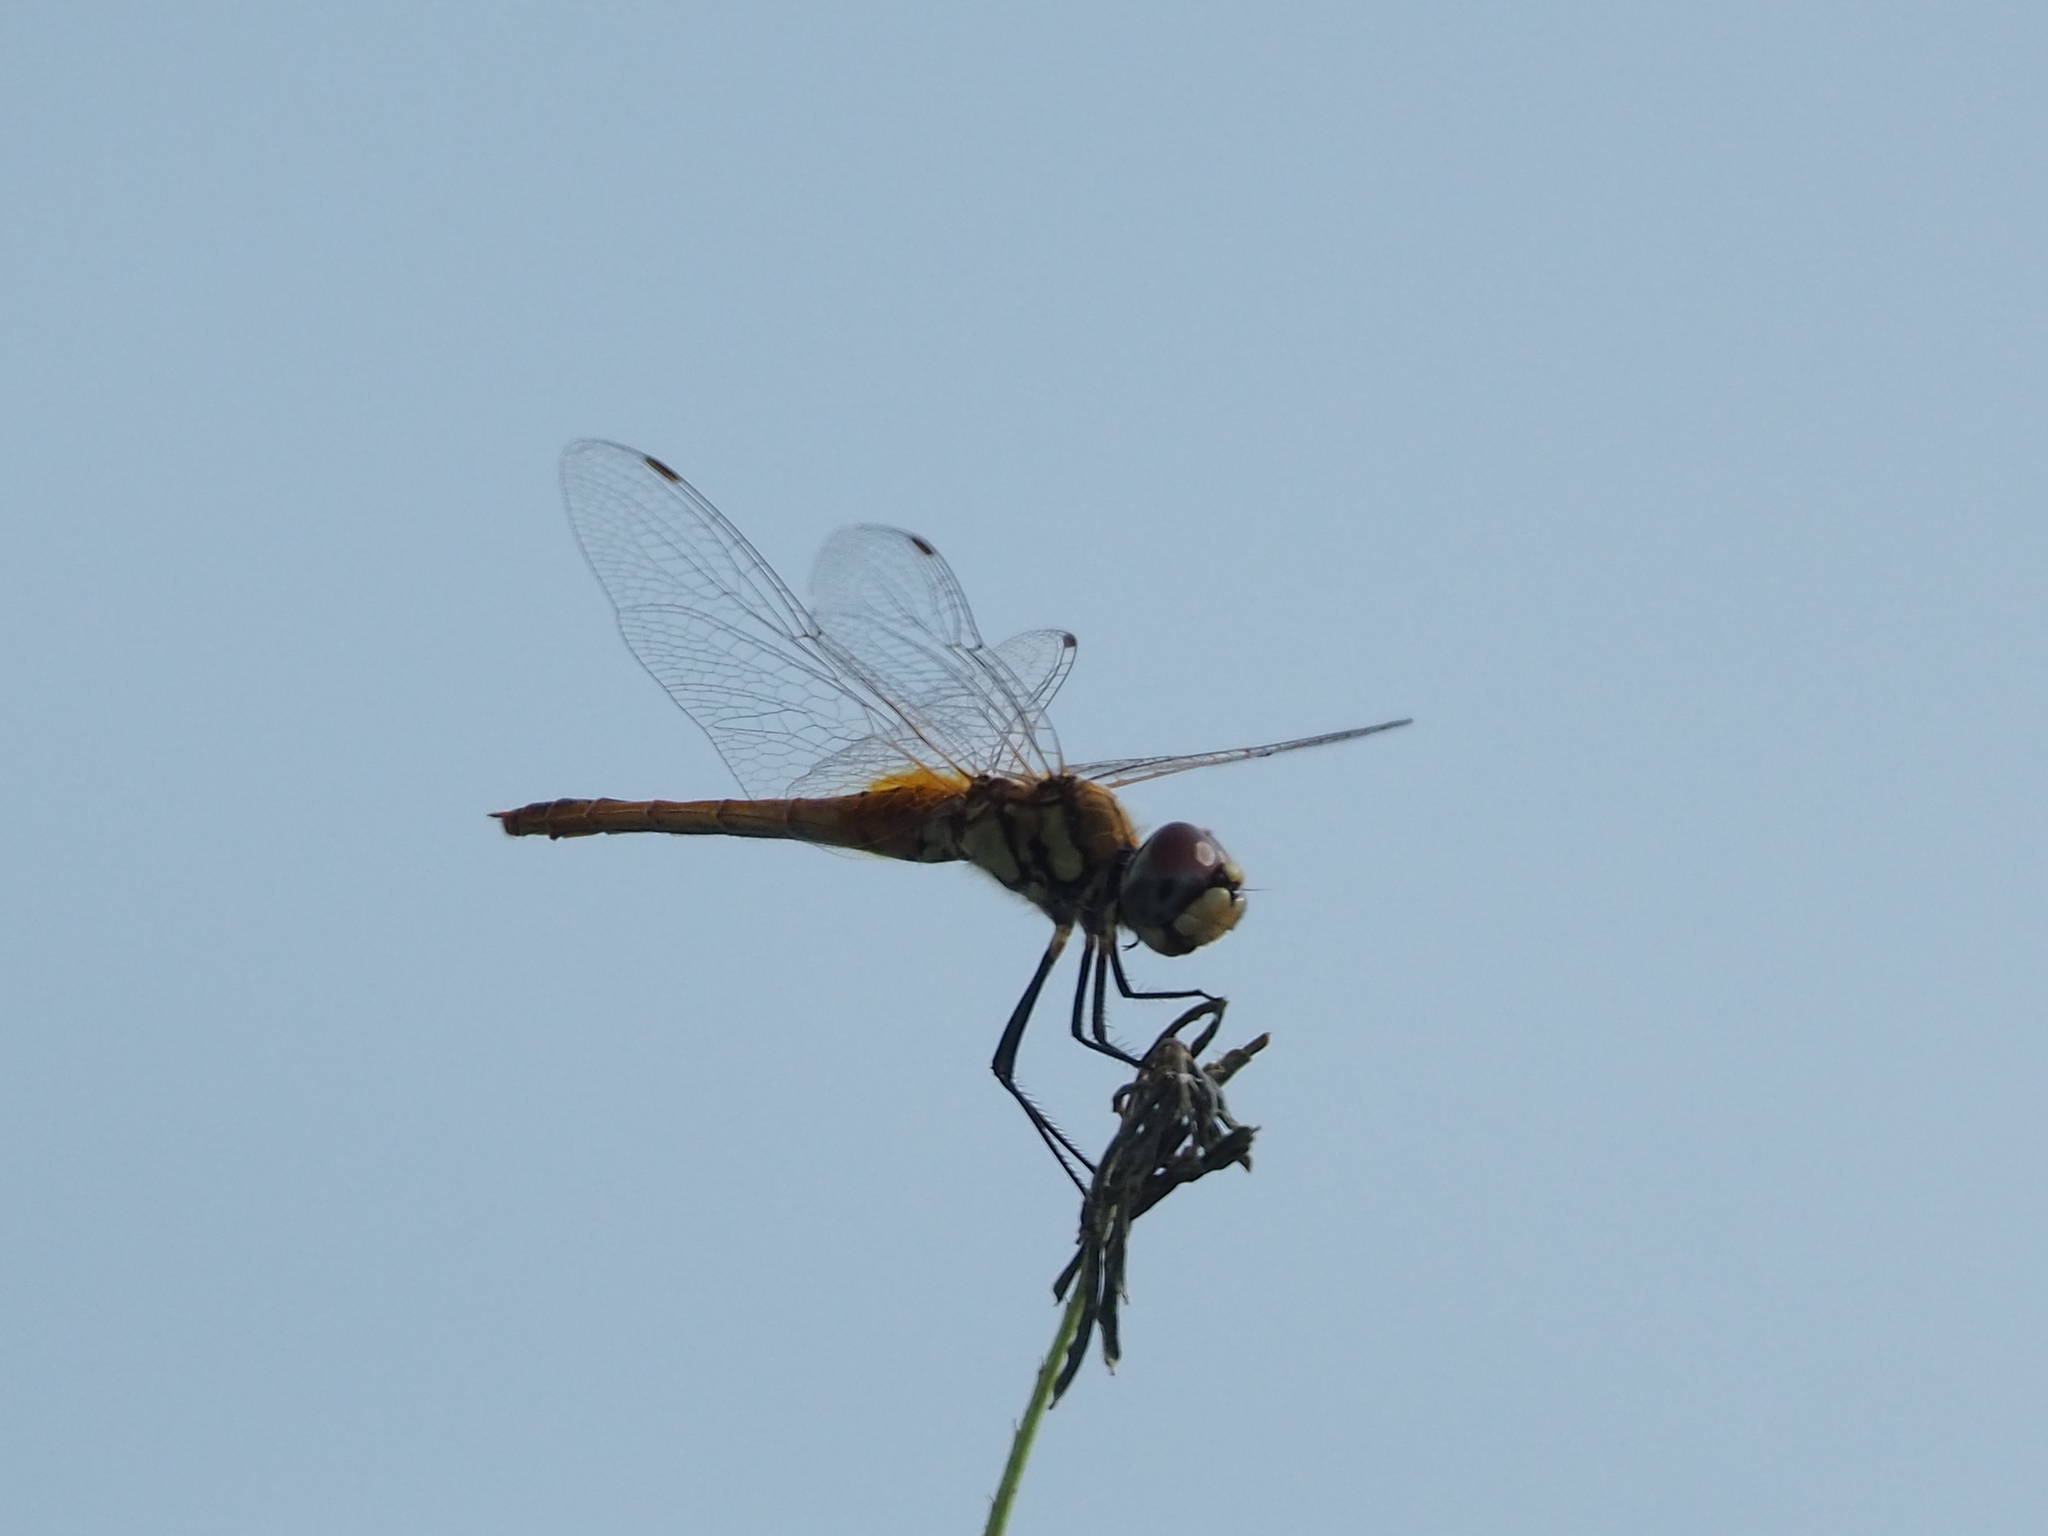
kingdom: Animalia
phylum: Arthropoda
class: Insecta
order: Odonata
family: Libellulidae
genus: Macrodiplax
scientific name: Macrodiplax cora
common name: Coastal glider
